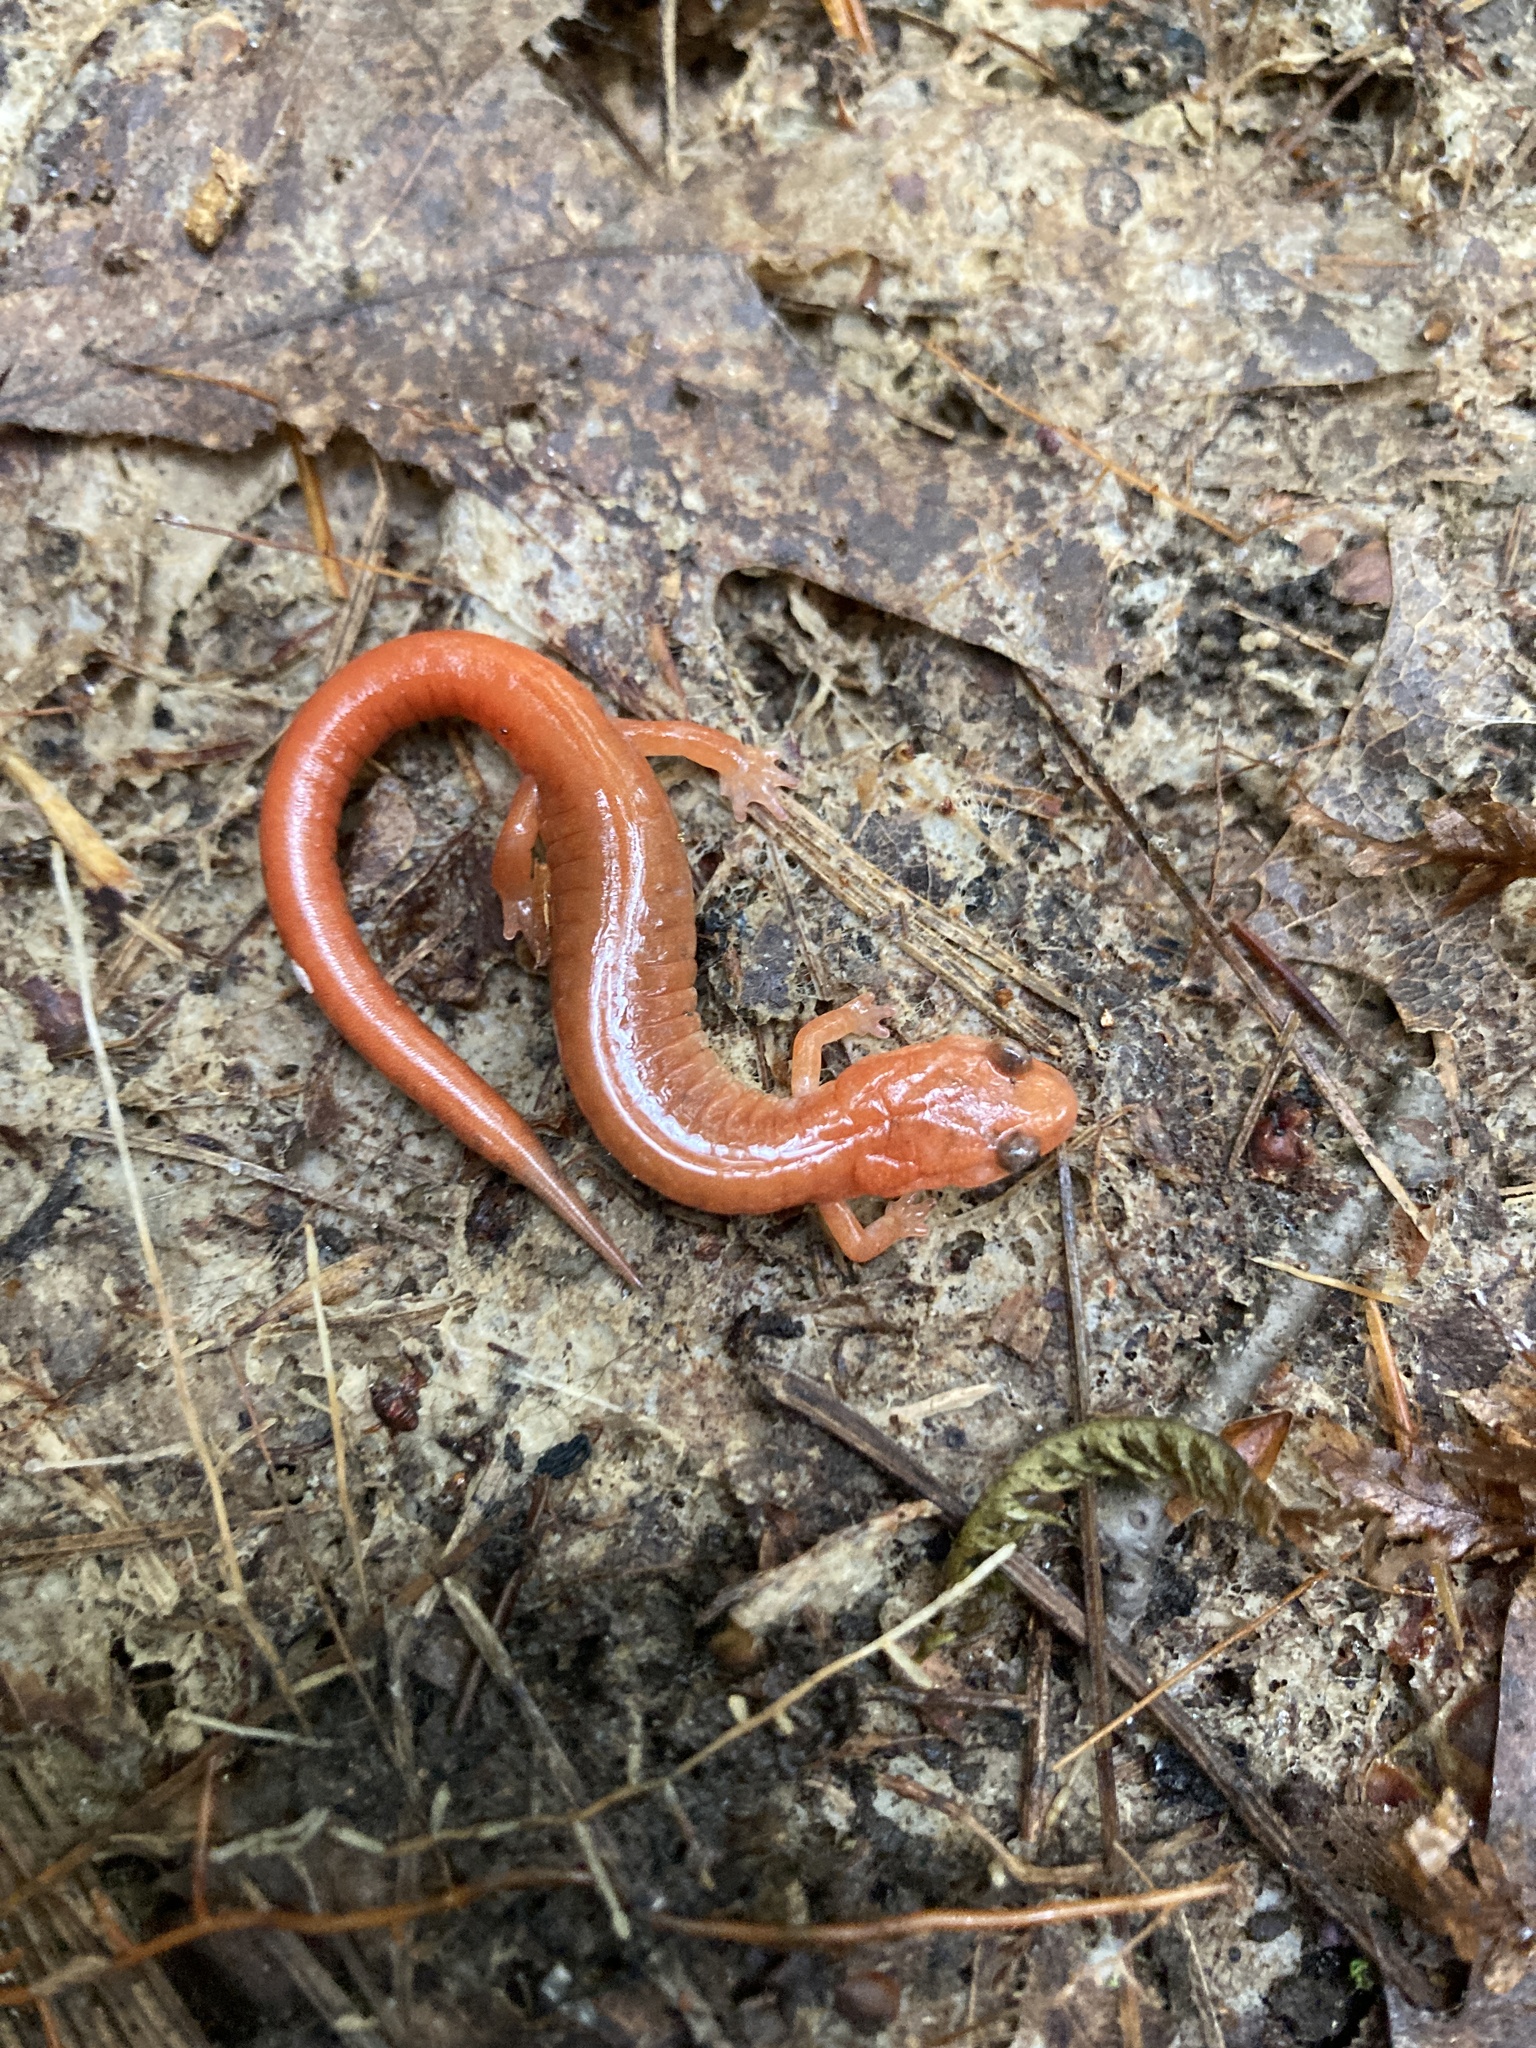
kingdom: Animalia
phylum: Chordata
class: Amphibia
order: Caudata
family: Plethodontidae
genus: Plethodon
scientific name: Plethodon cinereus
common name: Redback salamander
